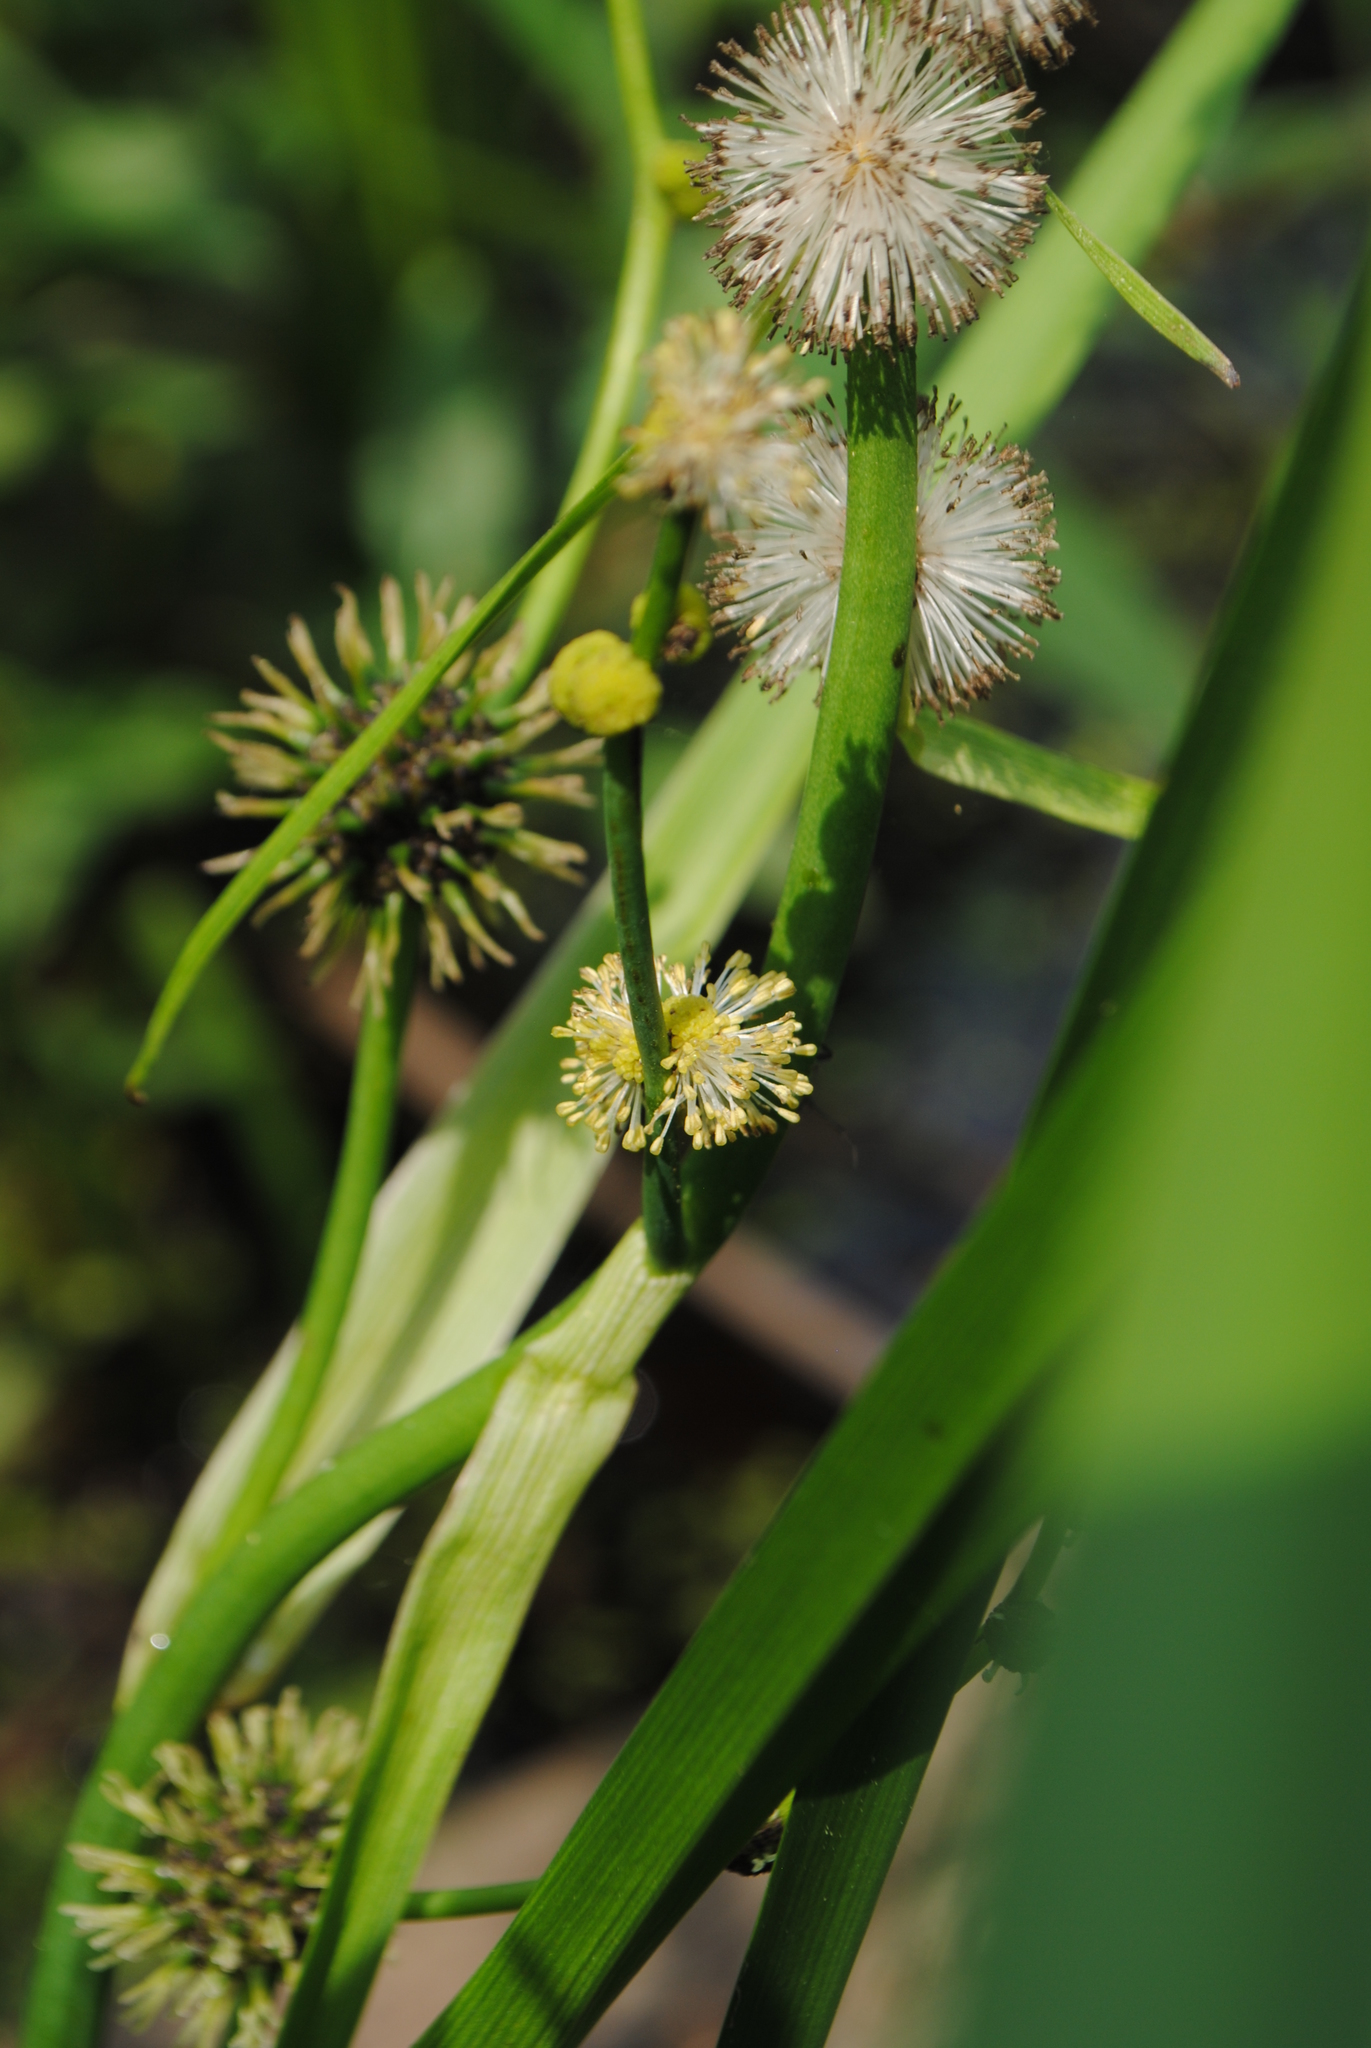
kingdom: Plantae
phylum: Tracheophyta
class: Liliopsida
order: Poales
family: Typhaceae
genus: Sparganium
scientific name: Sparganium eurycarpum
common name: Broad-fruited burreed
